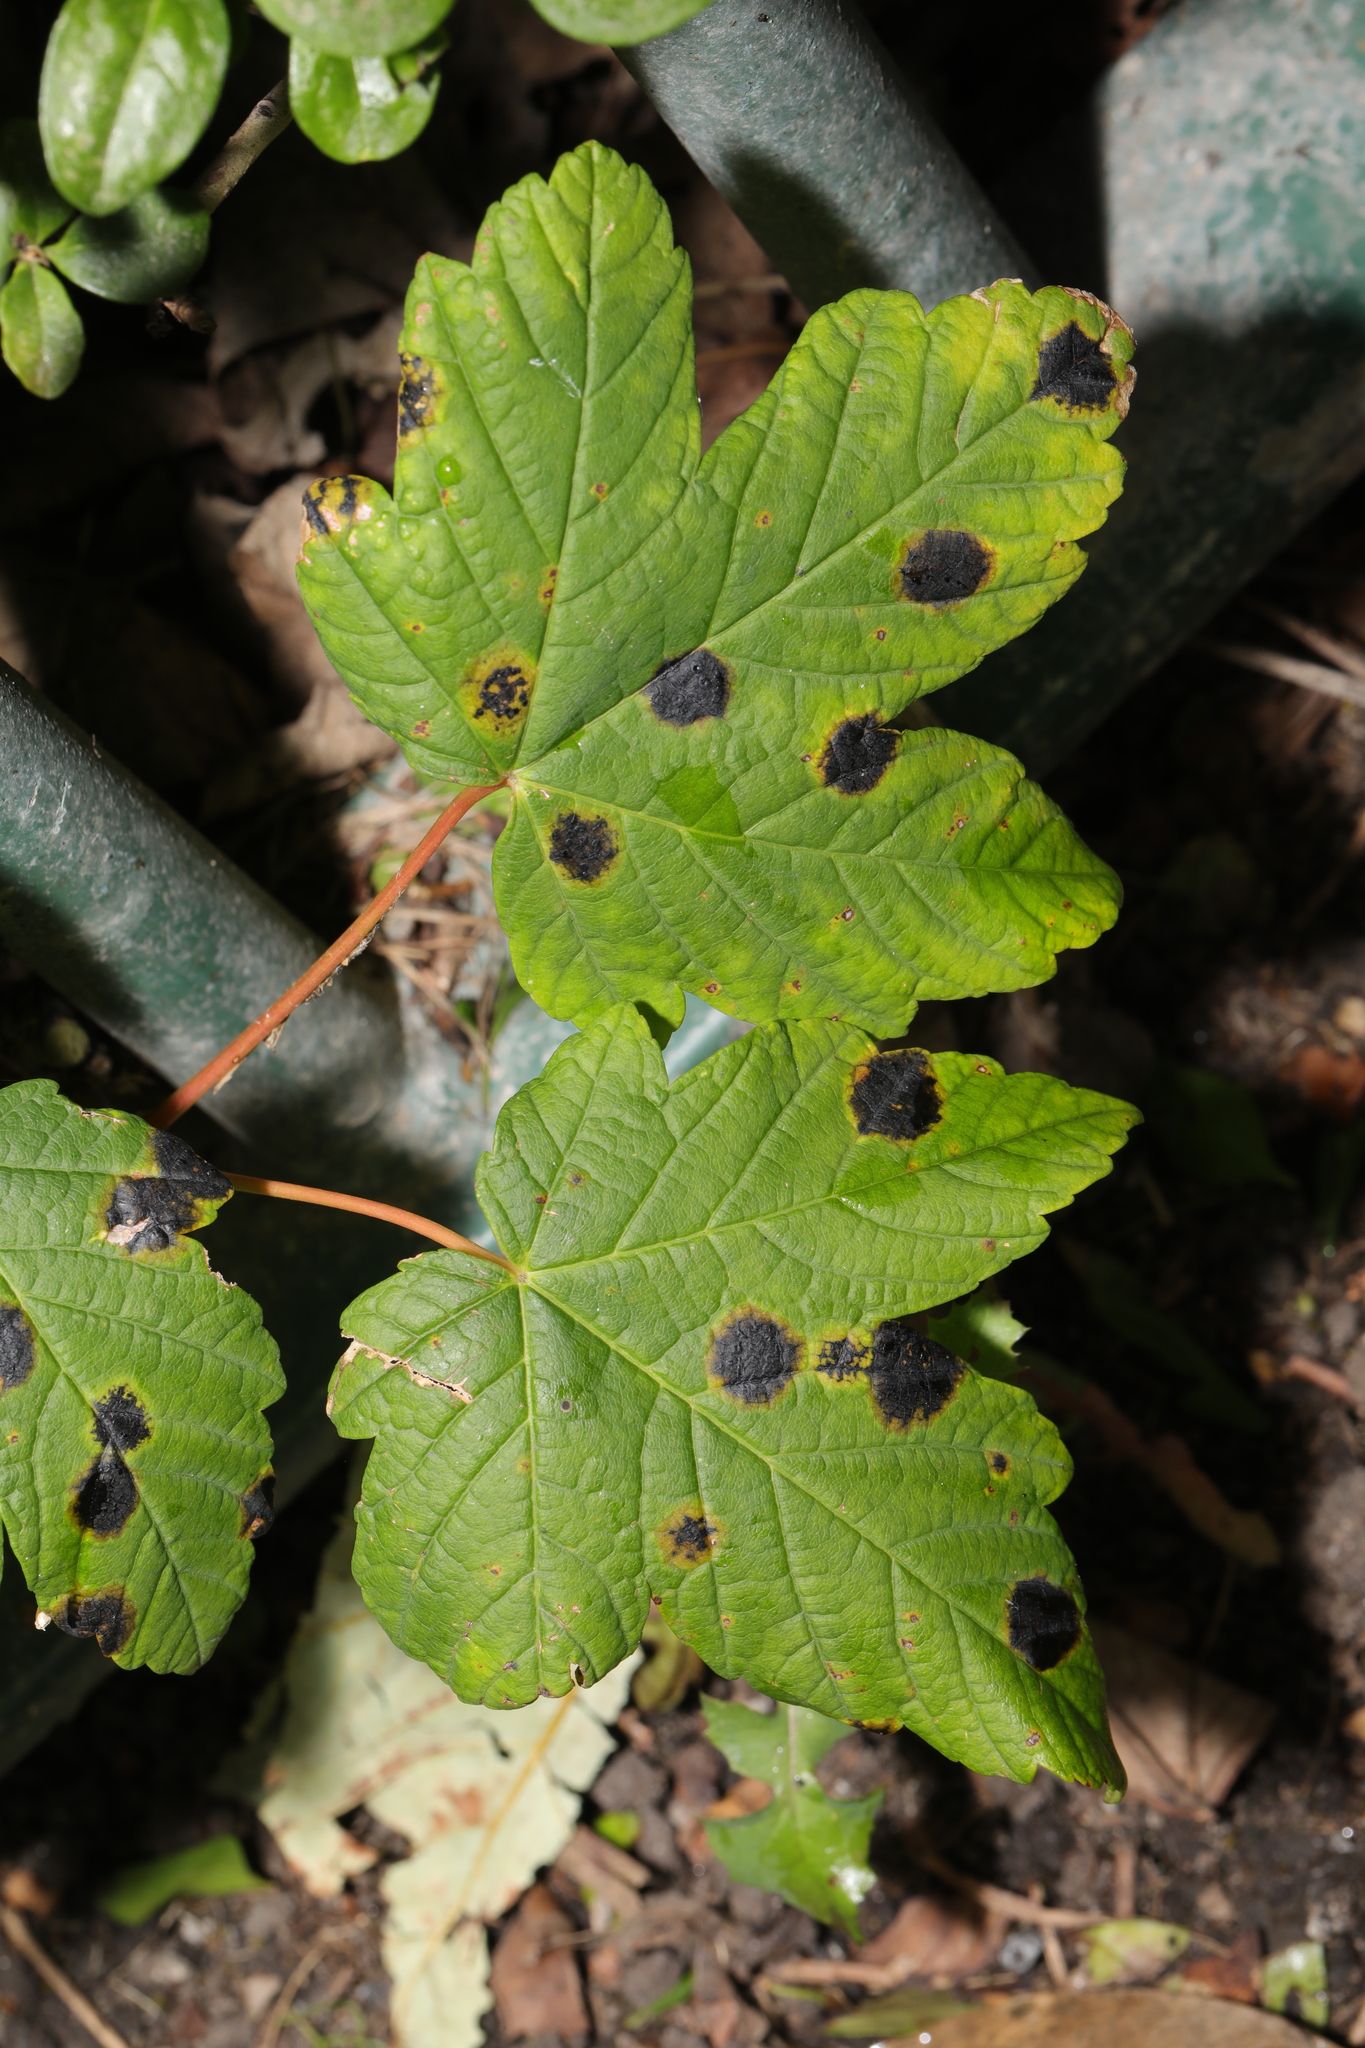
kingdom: Plantae
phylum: Tracheophyta
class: Magnoliopsida
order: Sapindales
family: Sapindaceae
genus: Acer
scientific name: Acer pseudoplatanus
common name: Sycamore
